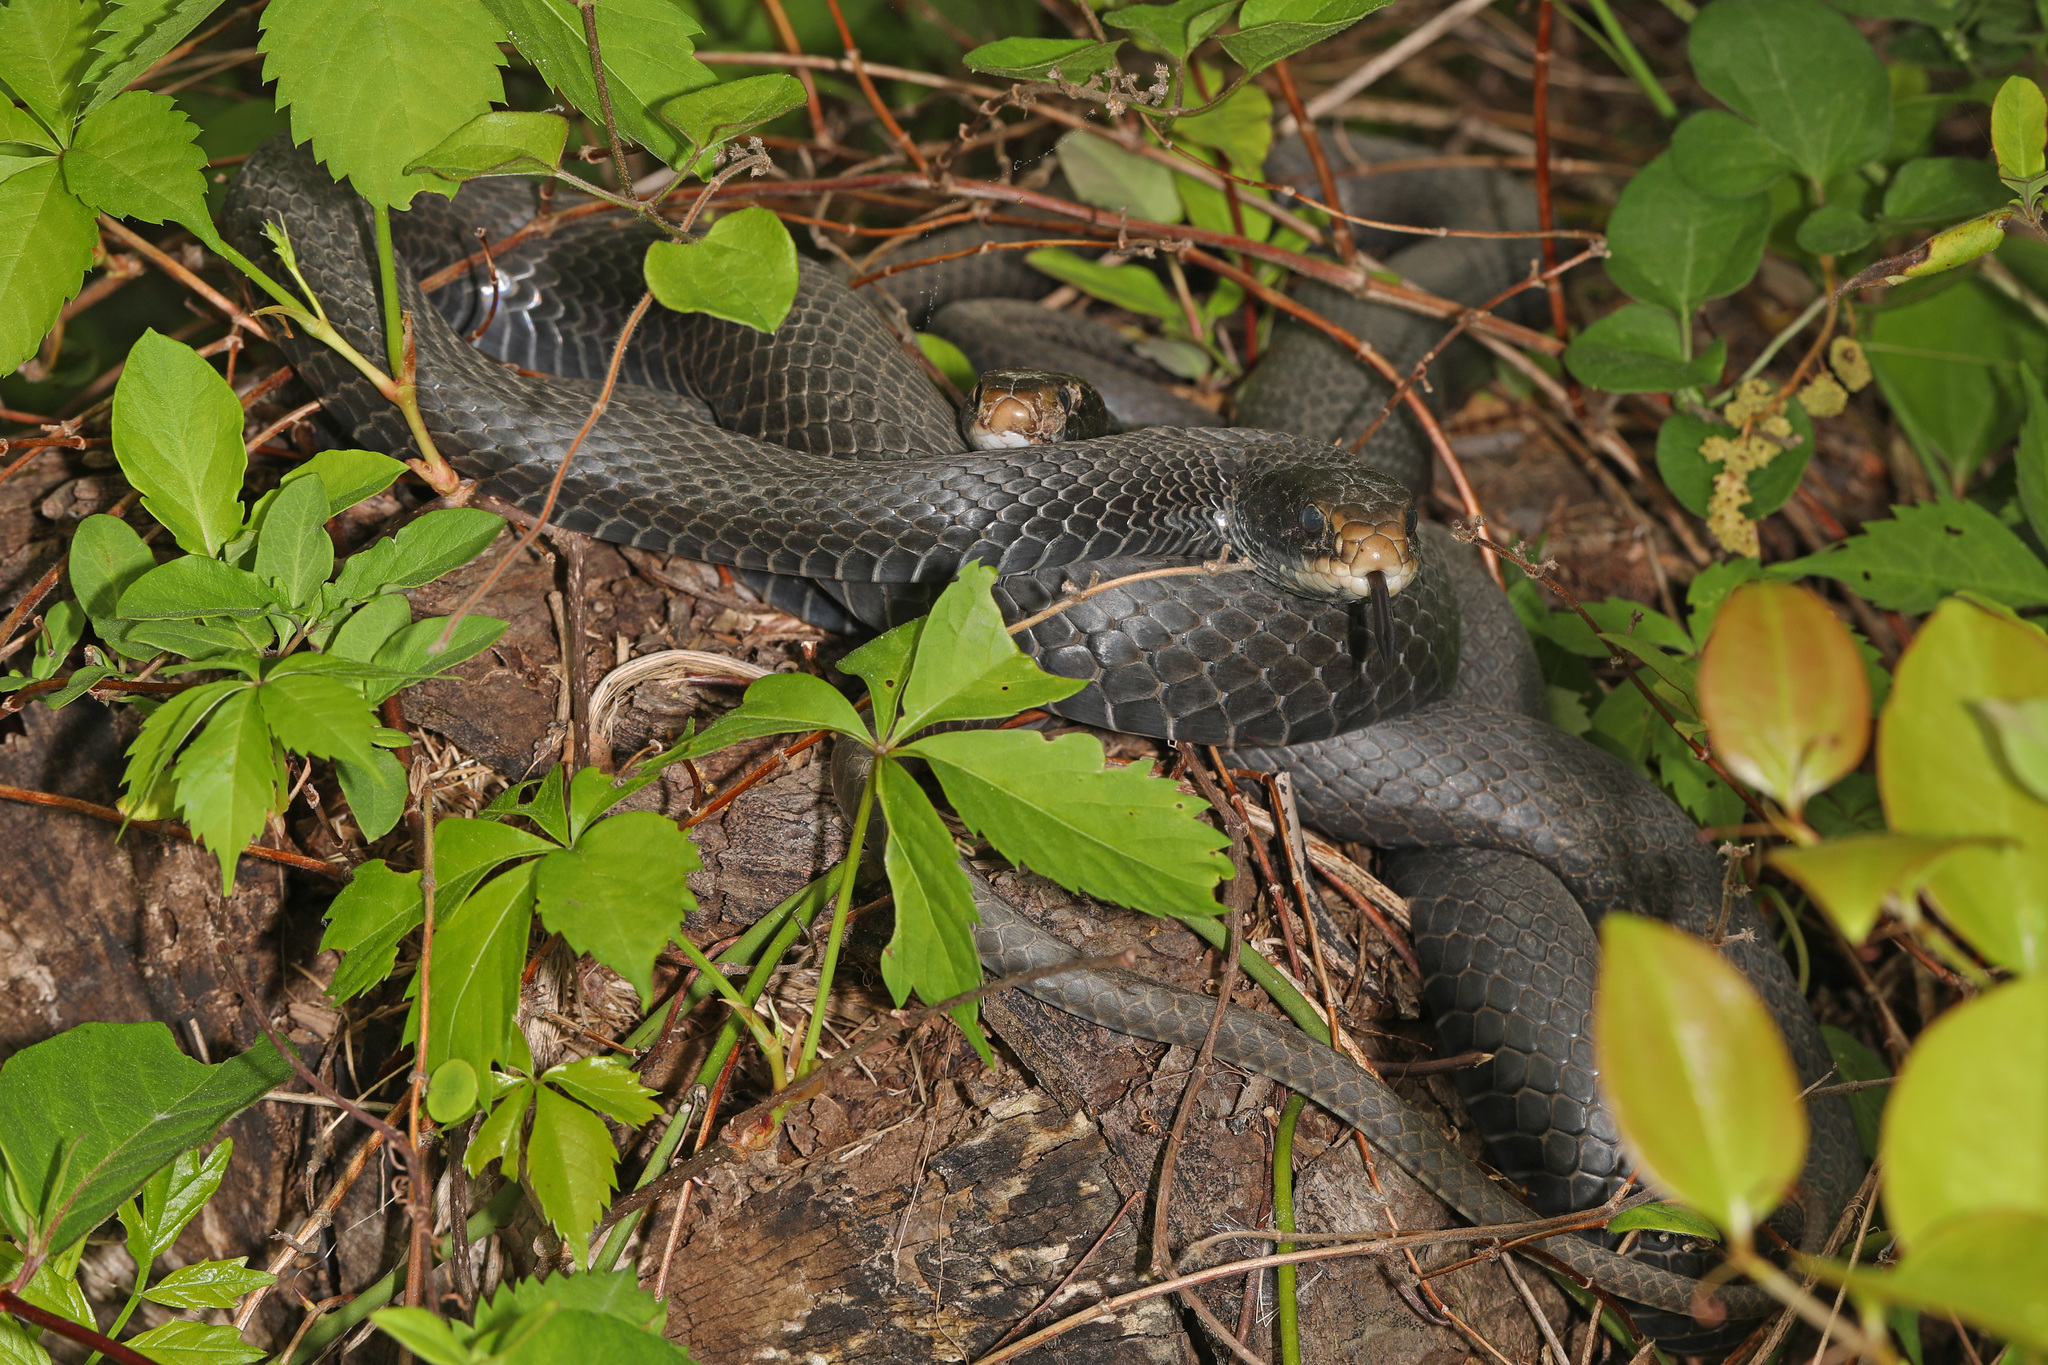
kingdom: Animalia
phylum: Chordata
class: Squamata
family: Colubridae
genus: Coluber
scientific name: Coluber constrictor
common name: Eastern racer
